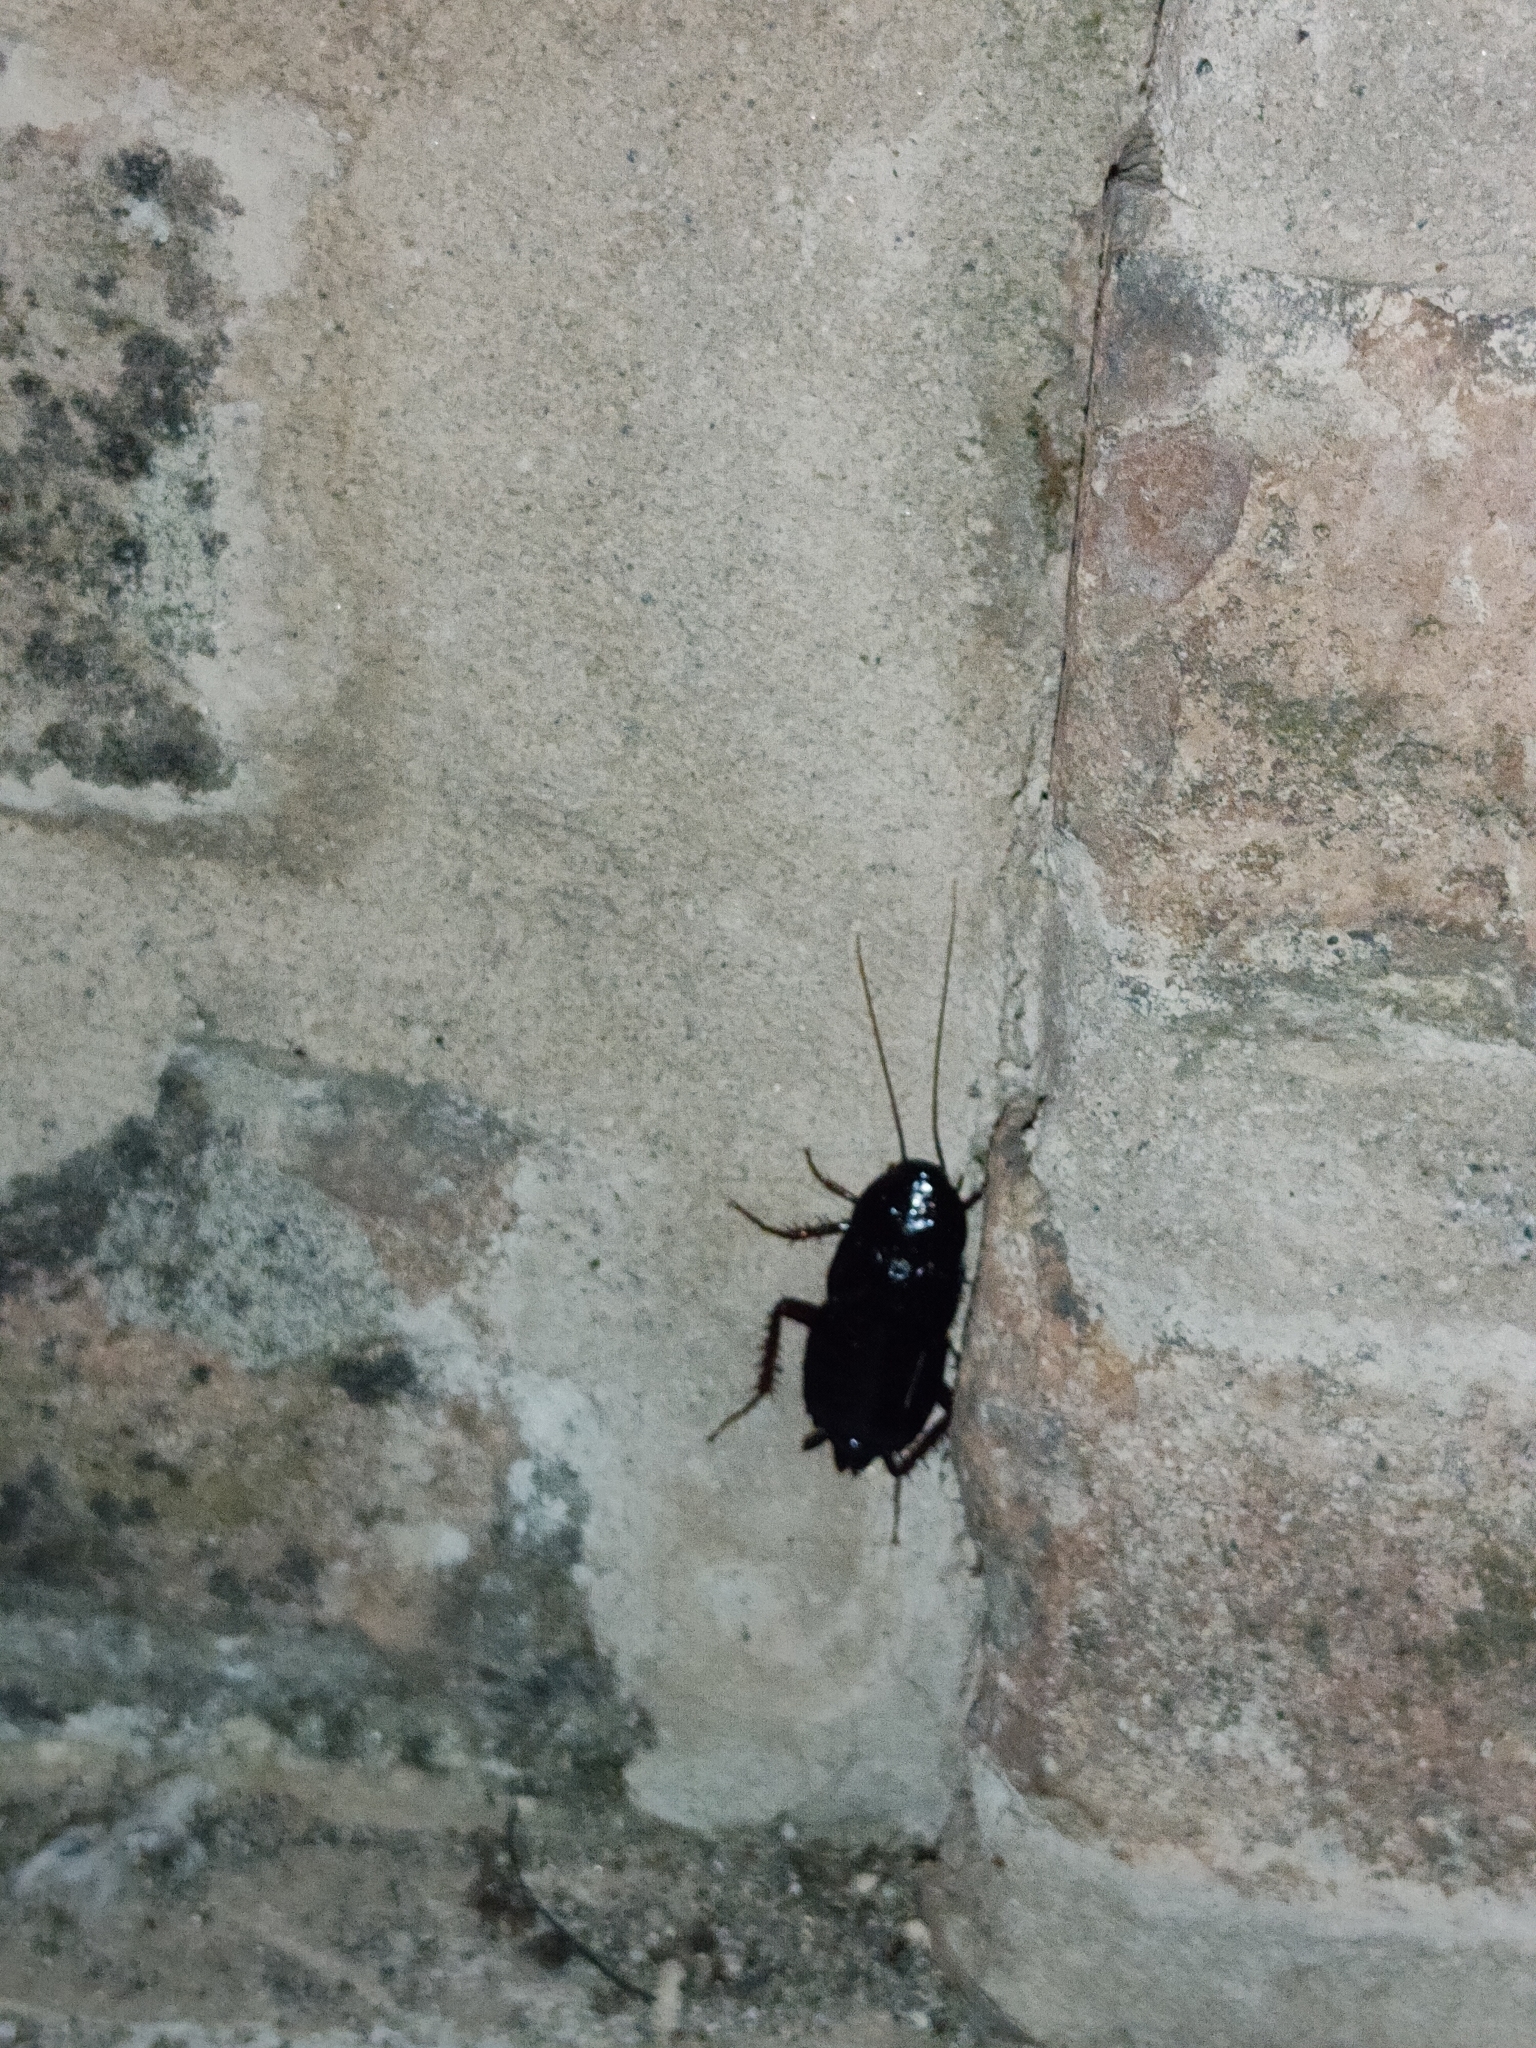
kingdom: Animalia
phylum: Arthropoda
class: Insecta
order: Blattodea
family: Blattidae
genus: Blatta
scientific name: Blatta orientalis
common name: Oriental cockroach
